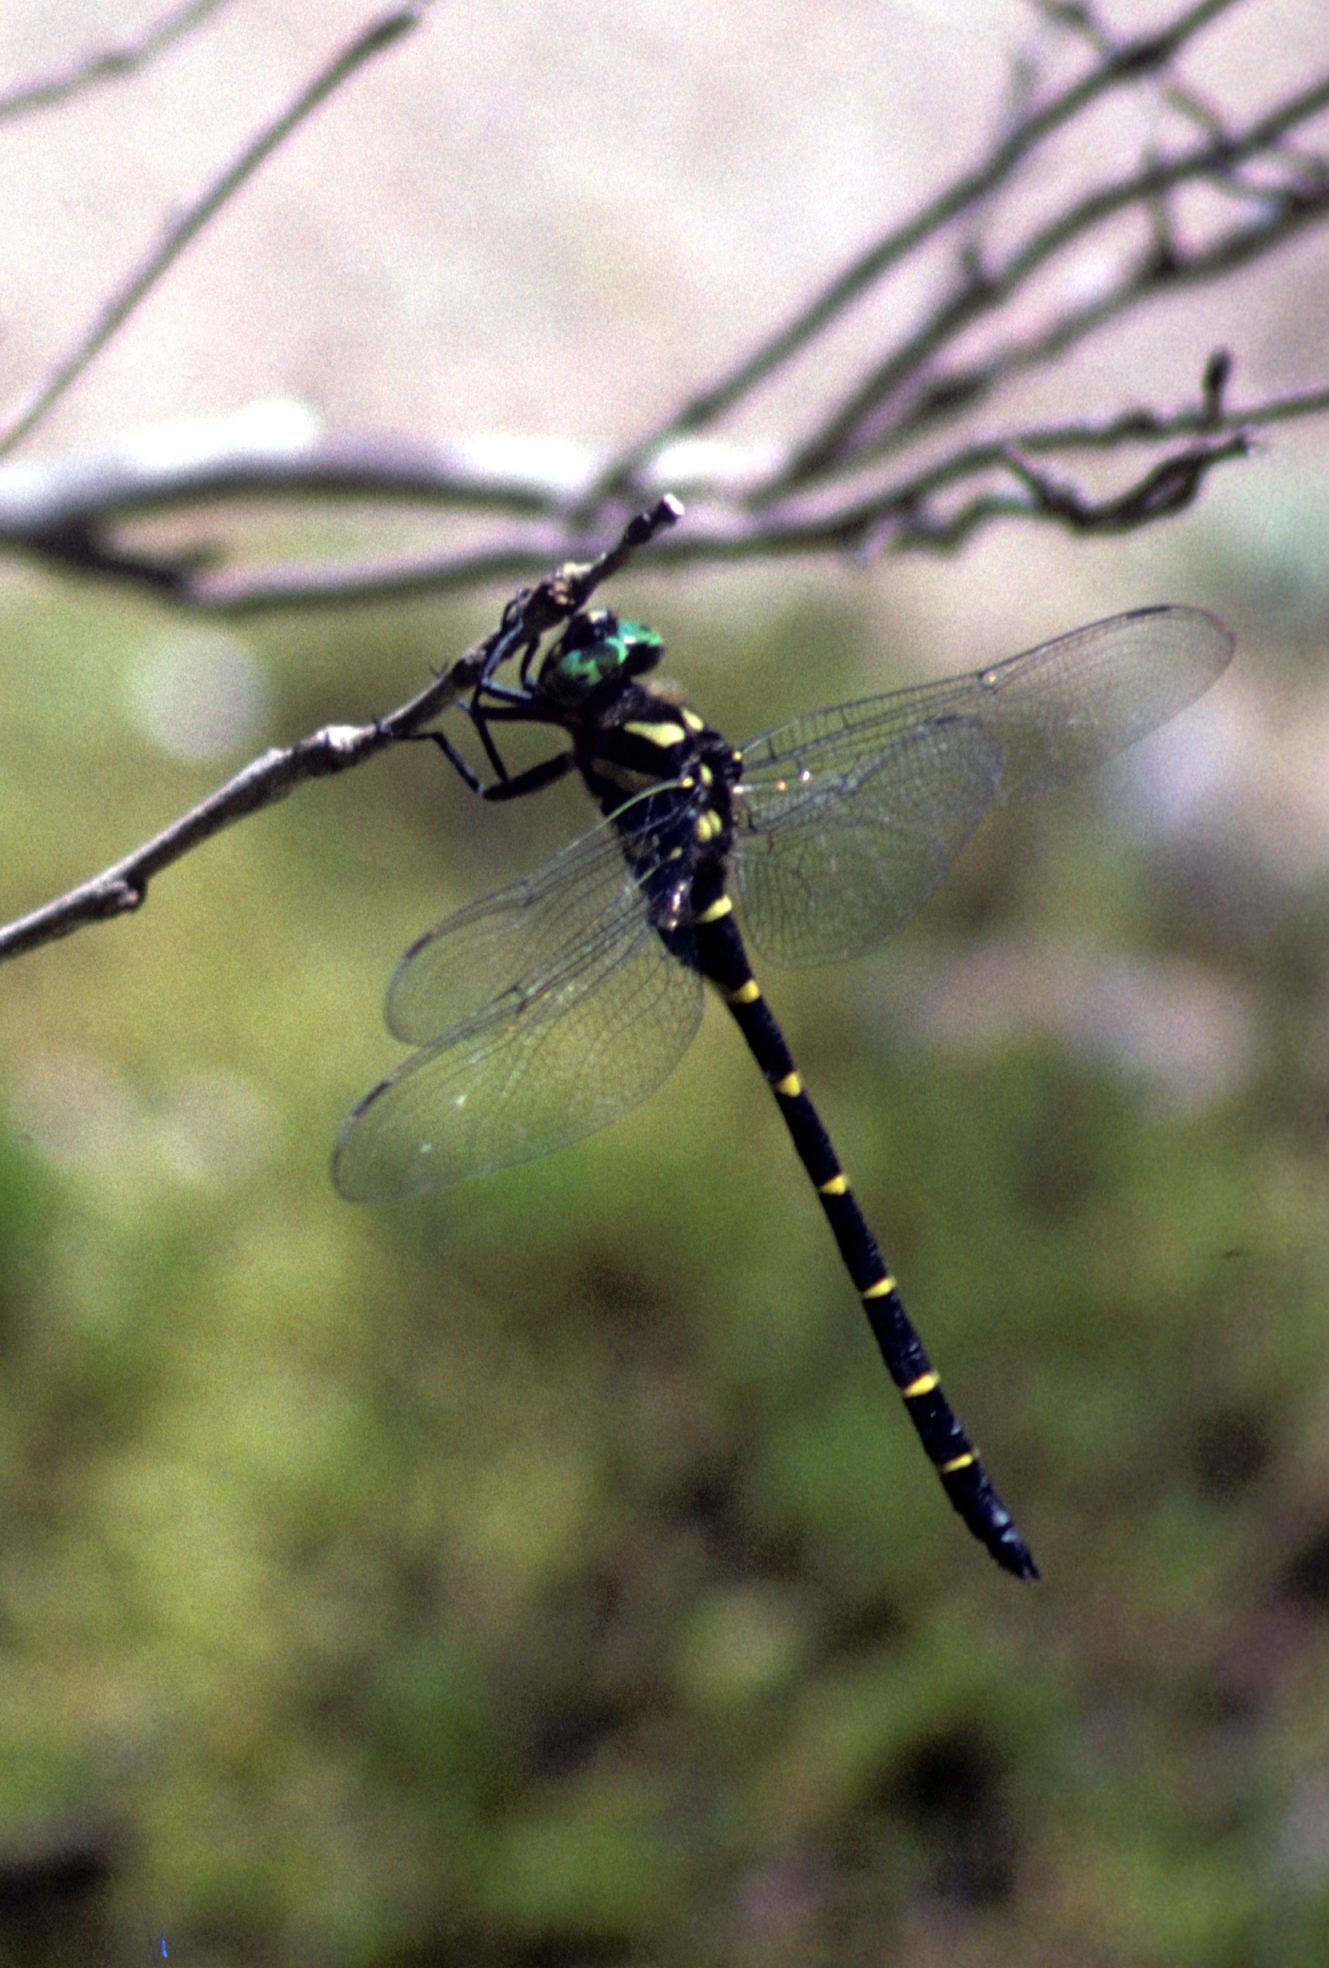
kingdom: Animalia
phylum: Arthropoda
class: Insecta
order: Odonata
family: Cordulegastridae
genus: Anotogaster
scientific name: Anotogaster sieboldii
